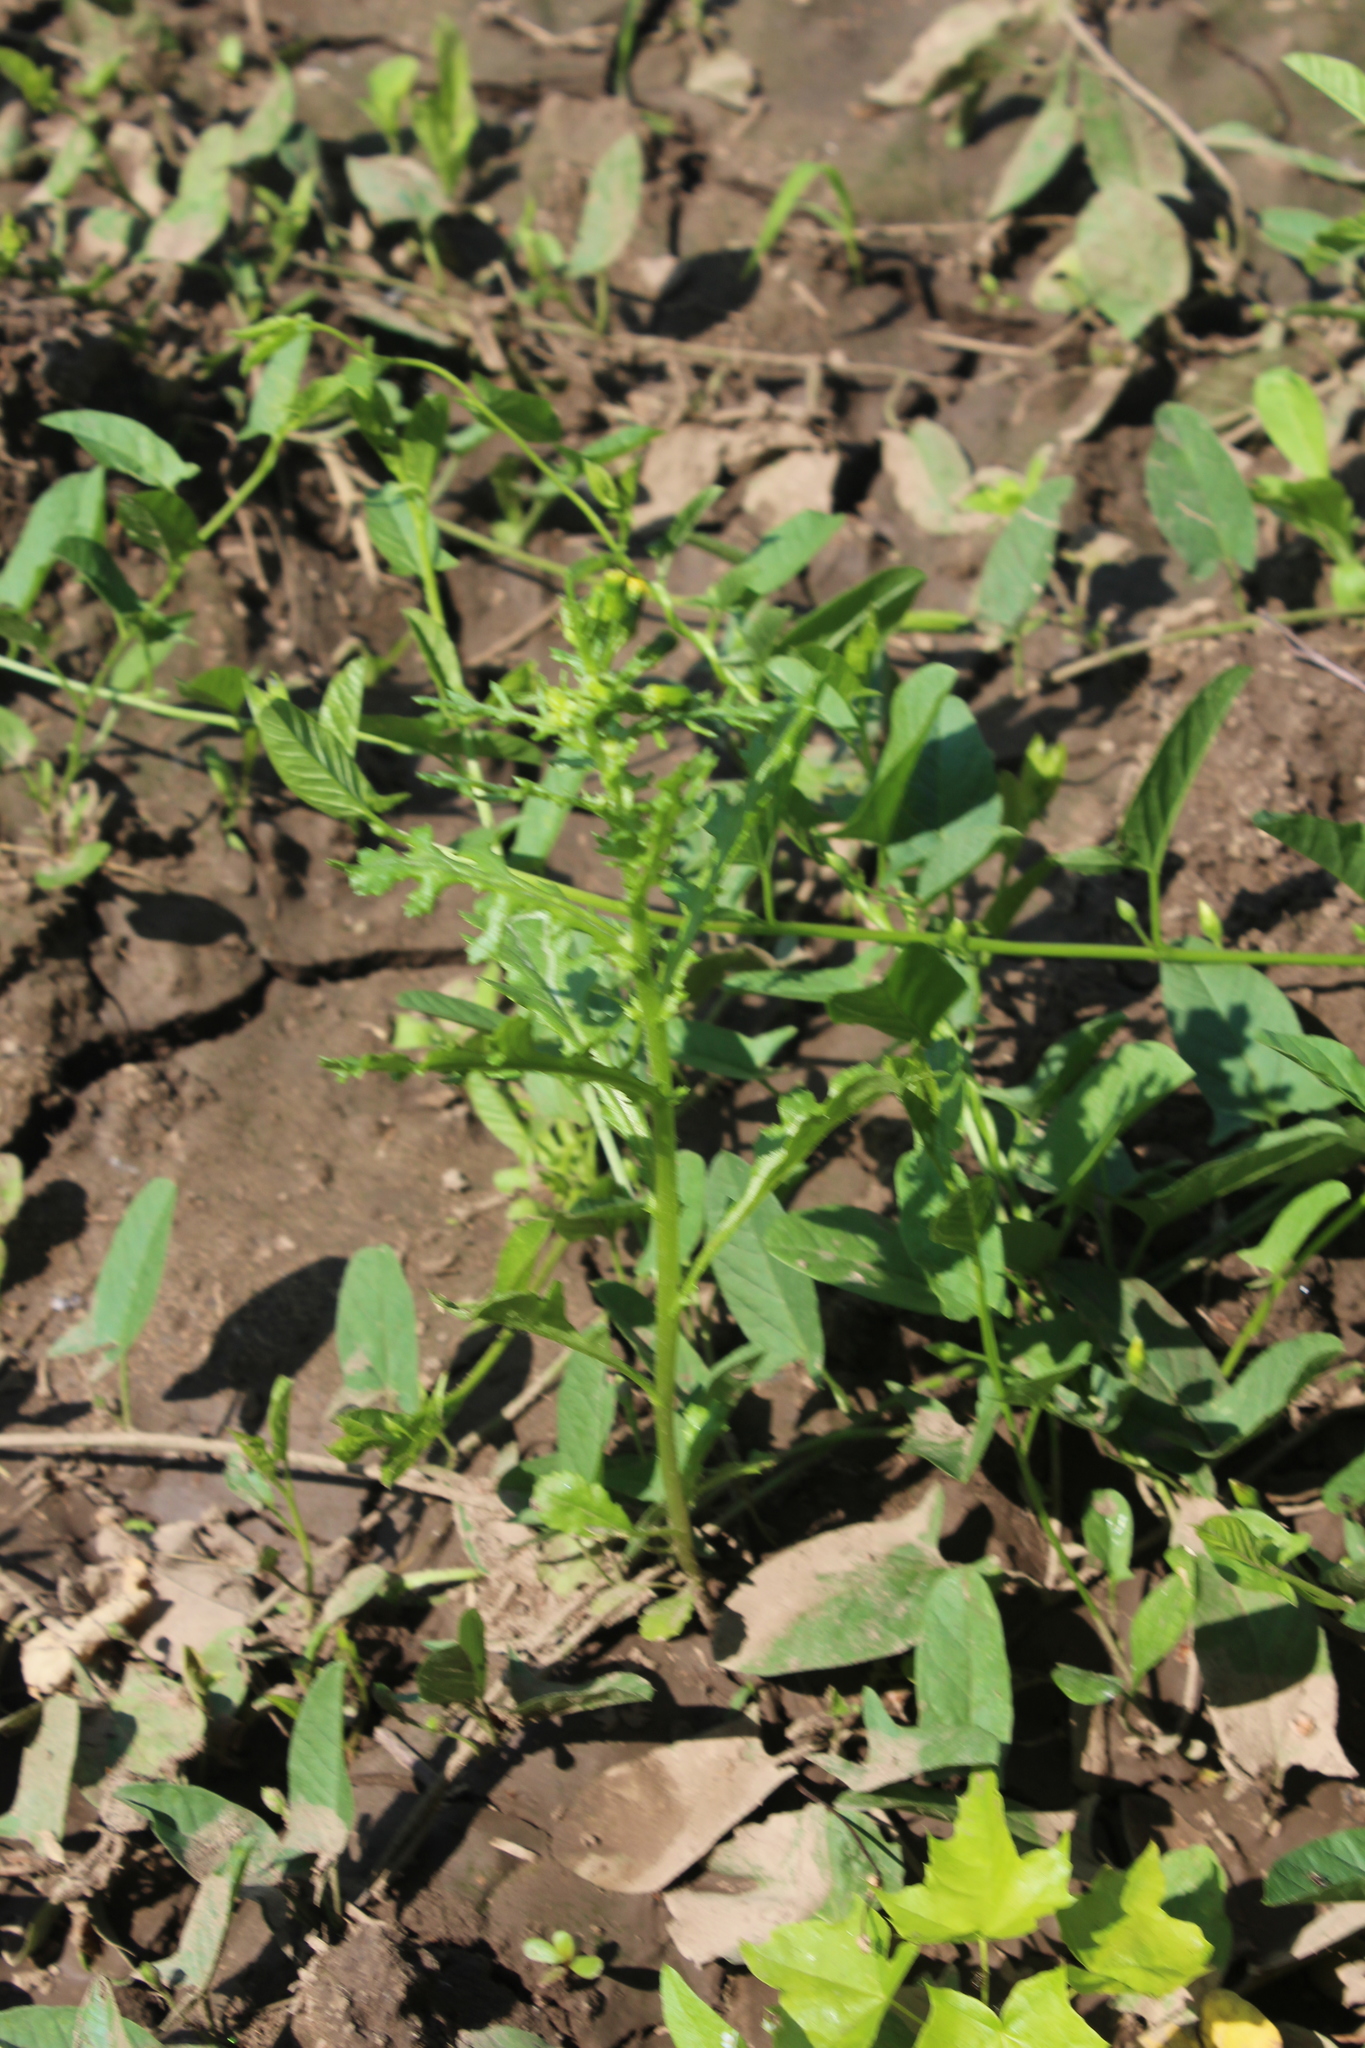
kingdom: Plantae
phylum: Tracheophyta
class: Magnoliopsida
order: Asterales
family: Asteraceae
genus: Senecio
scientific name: Senecio vulgaris
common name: Old-man-in-the-spring
